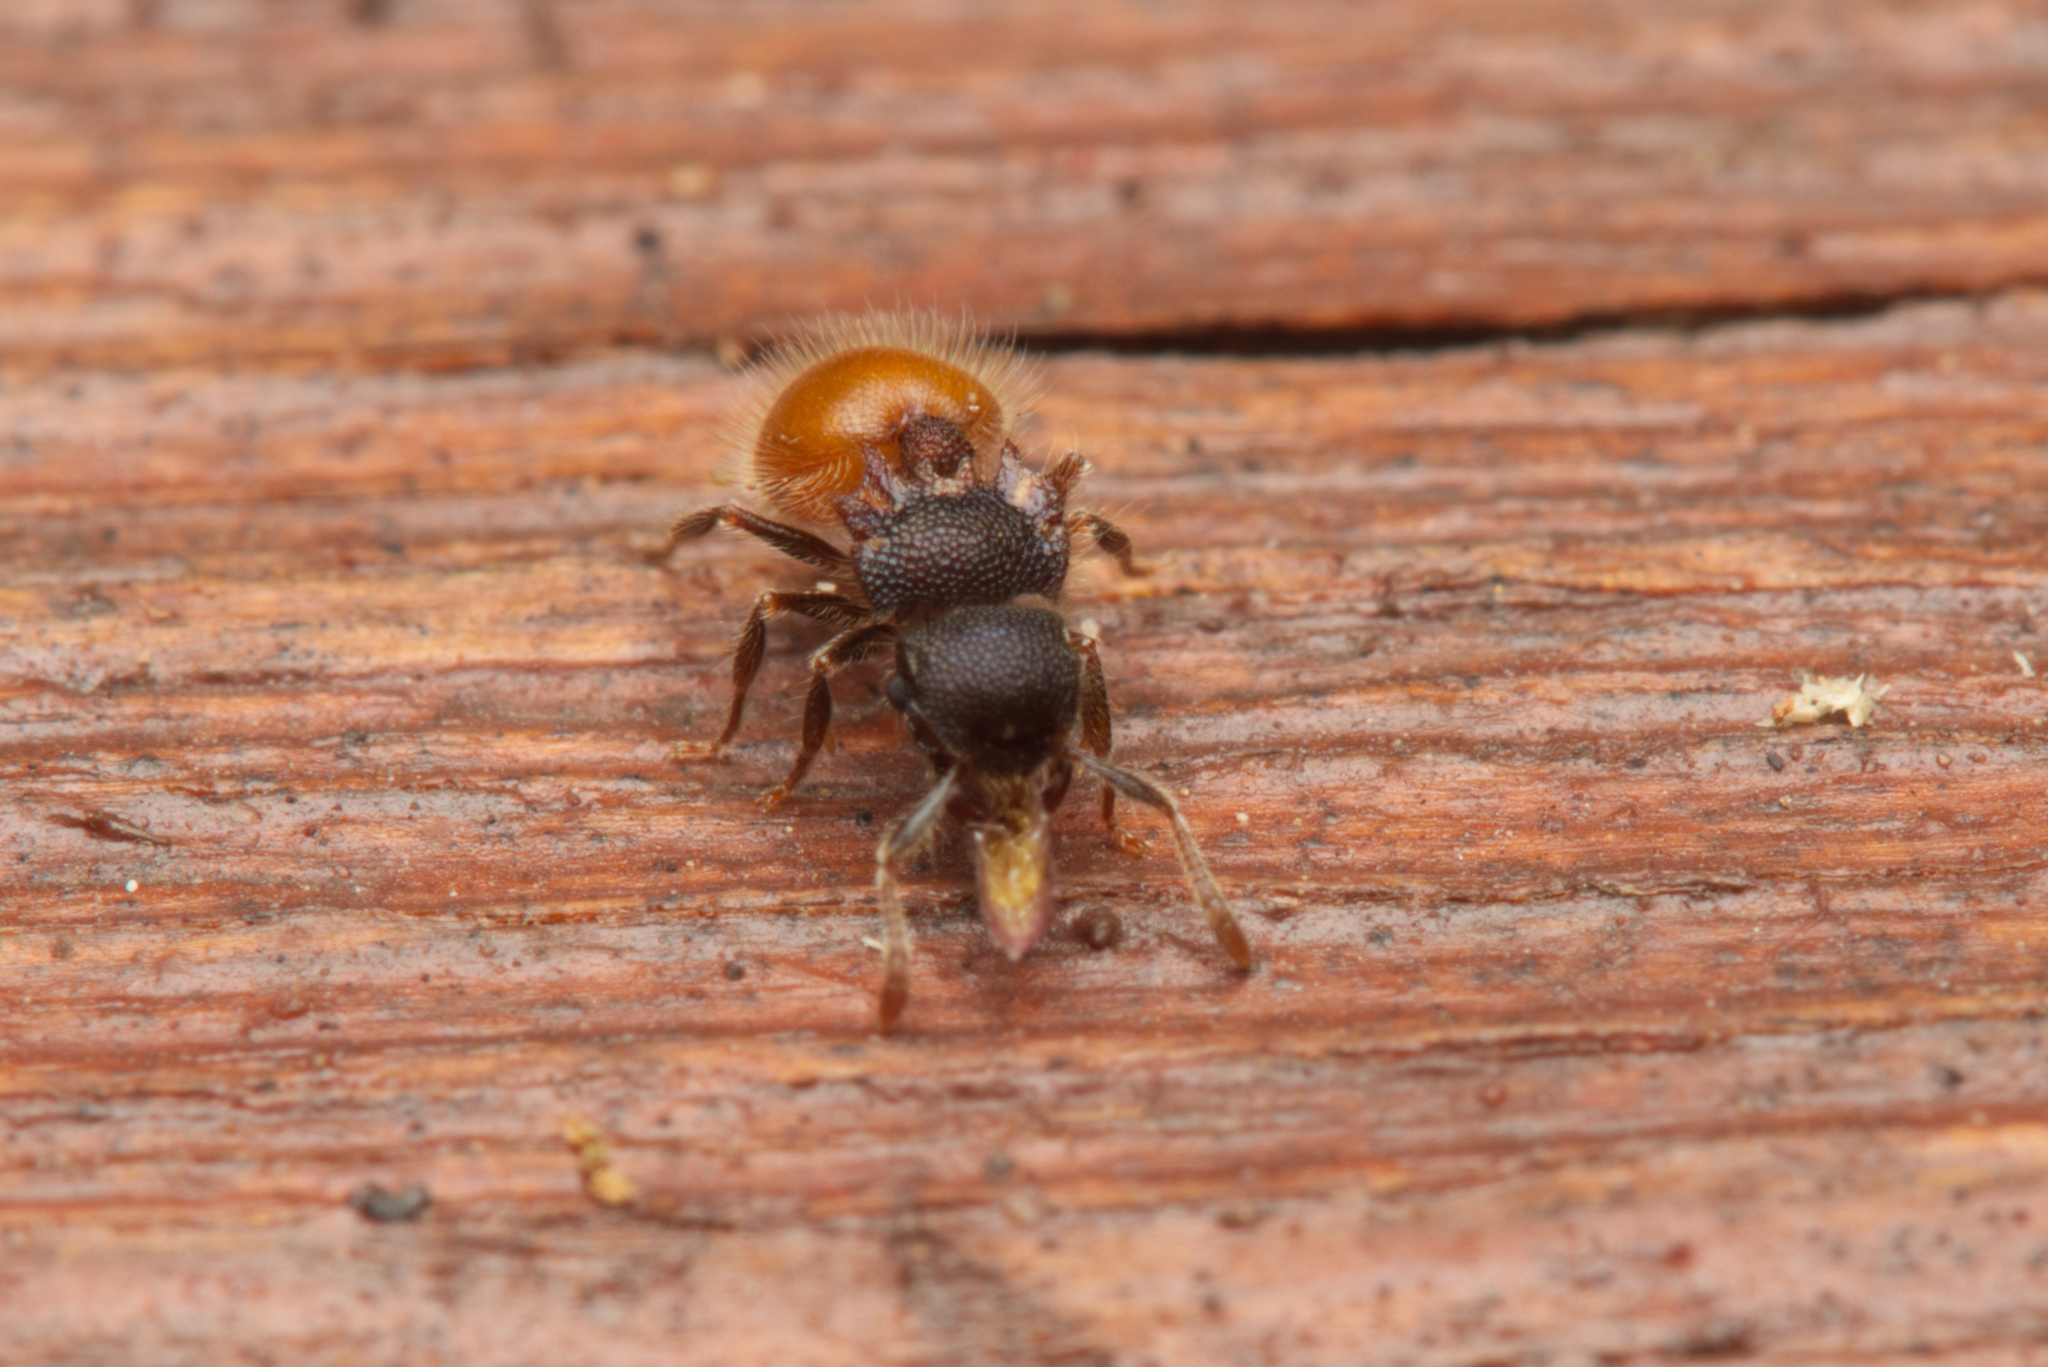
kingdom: Animalia
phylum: Arthropoda
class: Insecta
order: Hymenoptera
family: Formicidae
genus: Meranoplus
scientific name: Meranoplus hirsutus
